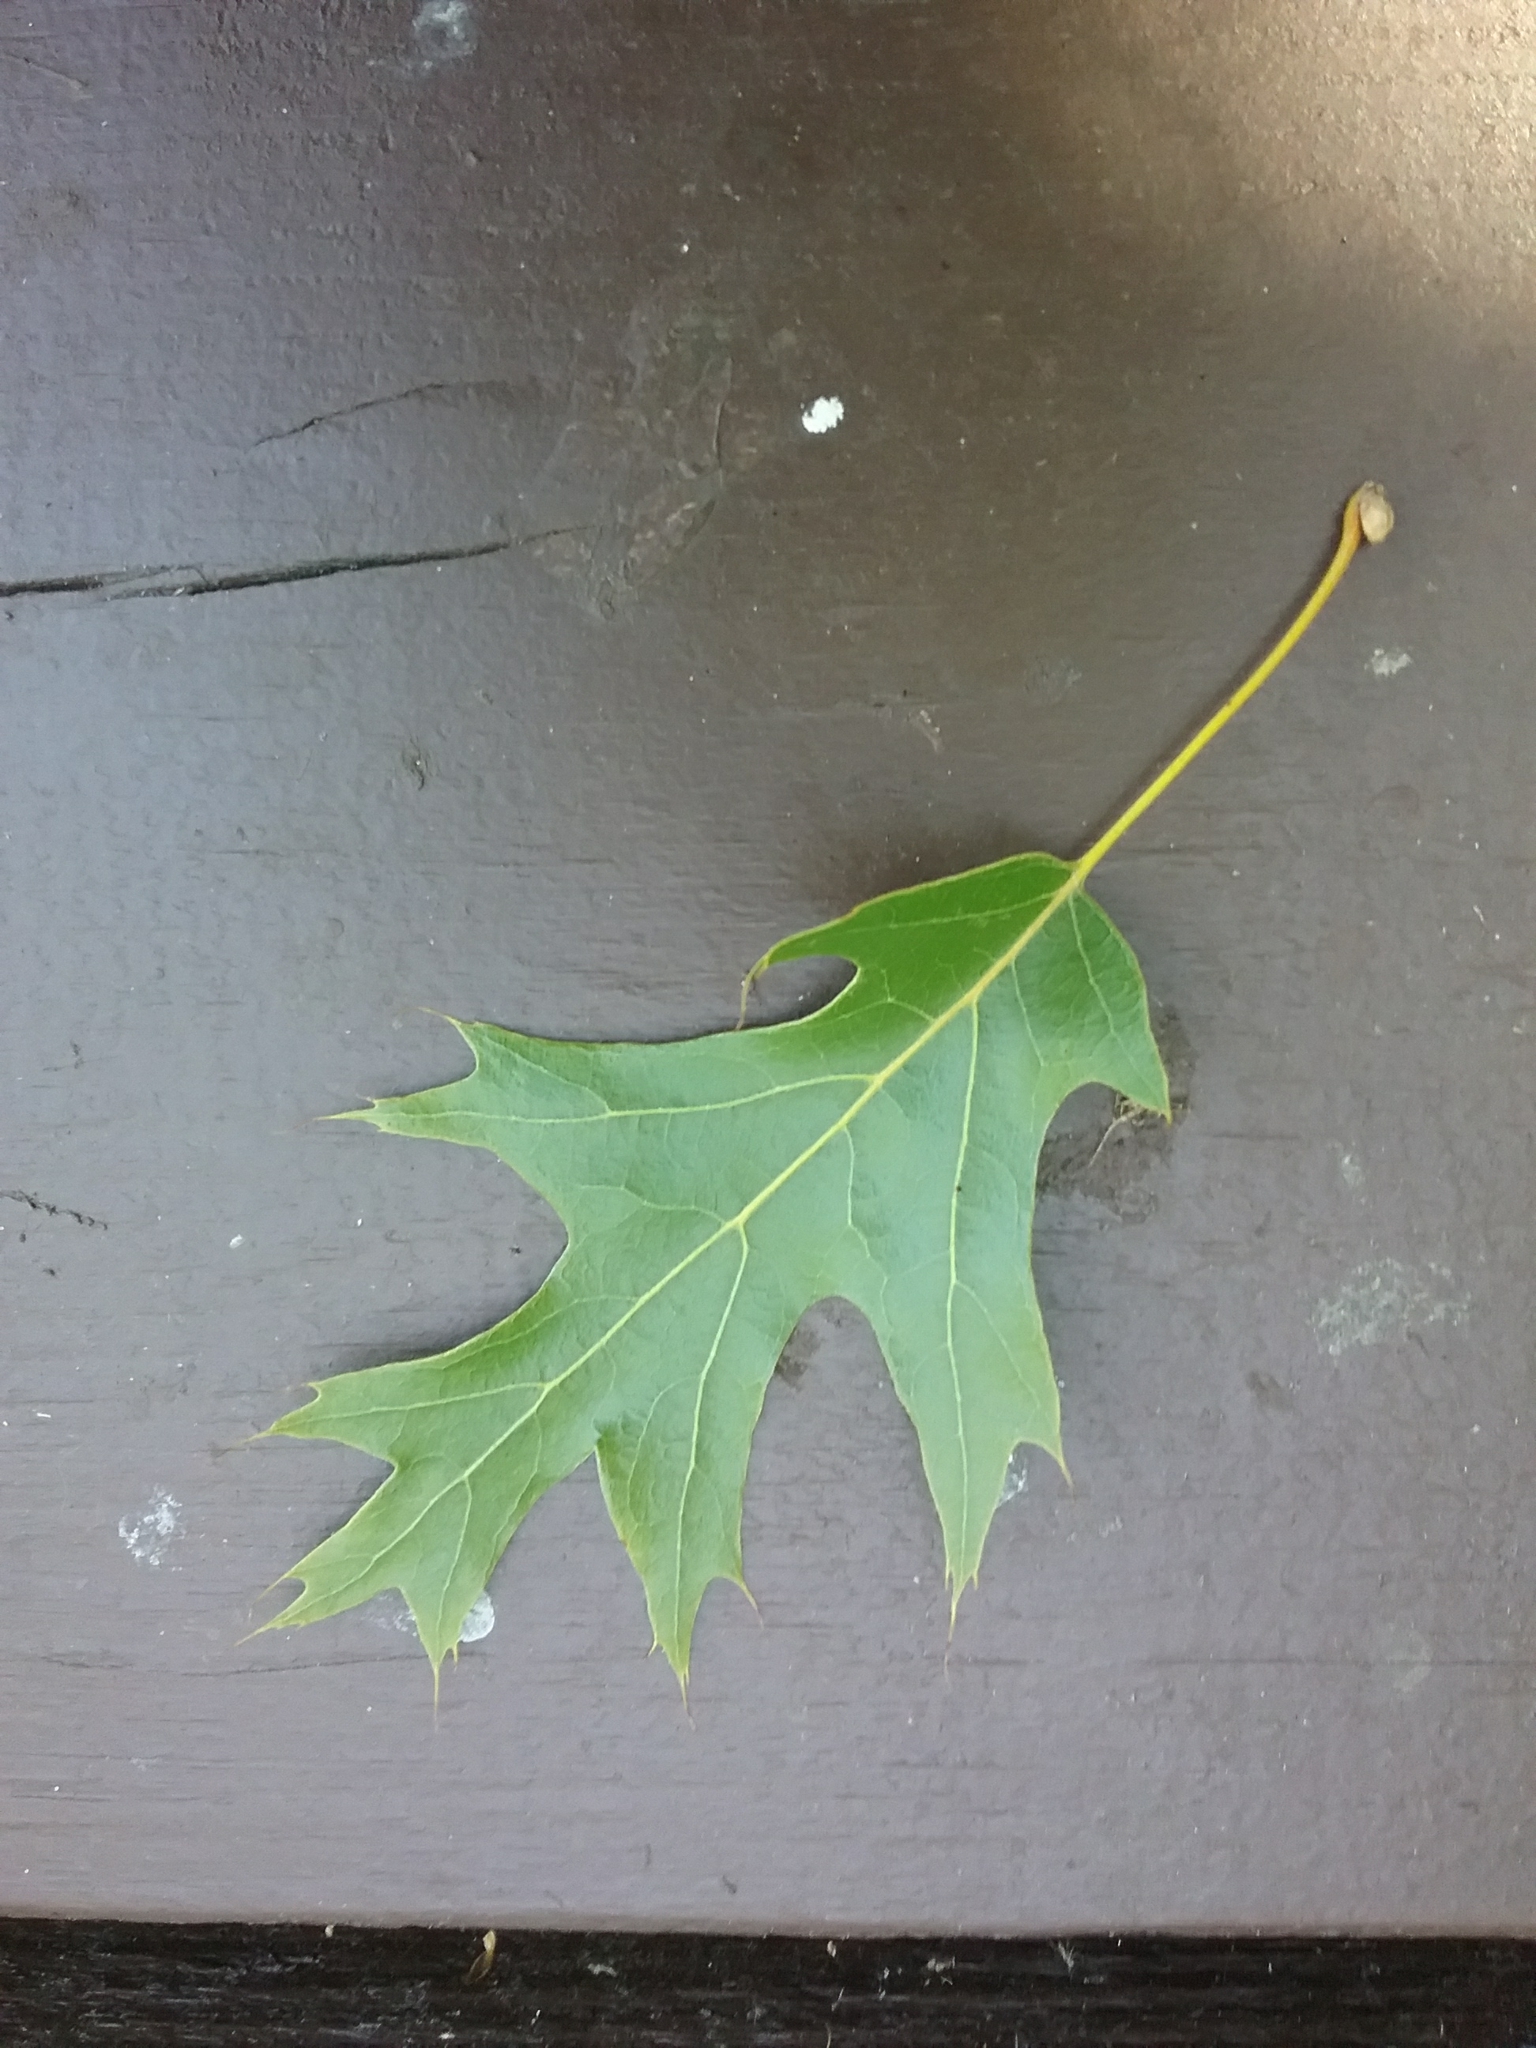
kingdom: Plantae
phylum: Tracheophyta
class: Magnoliopsida
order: Fagales
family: Fagaceae
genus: Quercus
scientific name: Quercus velutina
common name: Black oak
